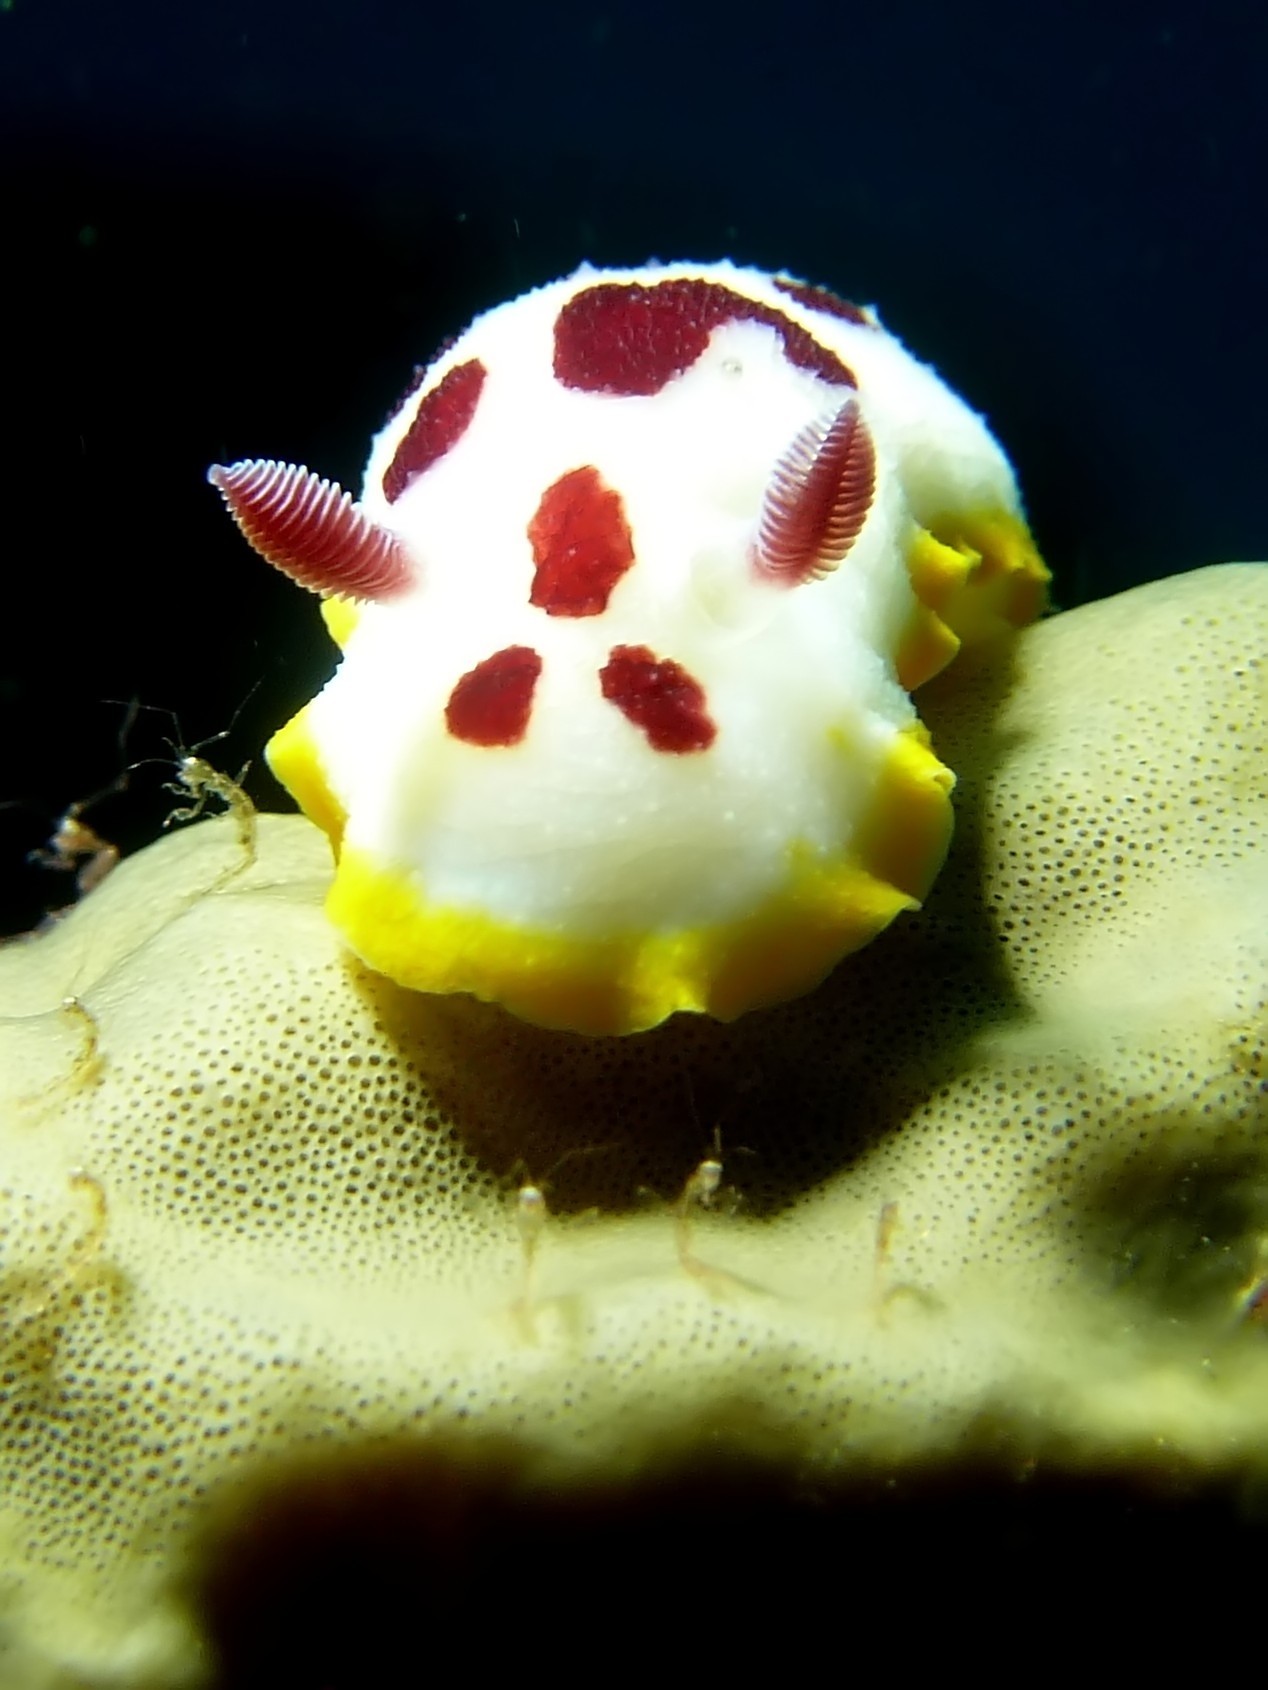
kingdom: Animalia
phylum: Mollusca
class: Gastropoda
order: Nudibranchia
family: Chromodorididae
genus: Goniobranchus
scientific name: Goniobranchus splendidus
